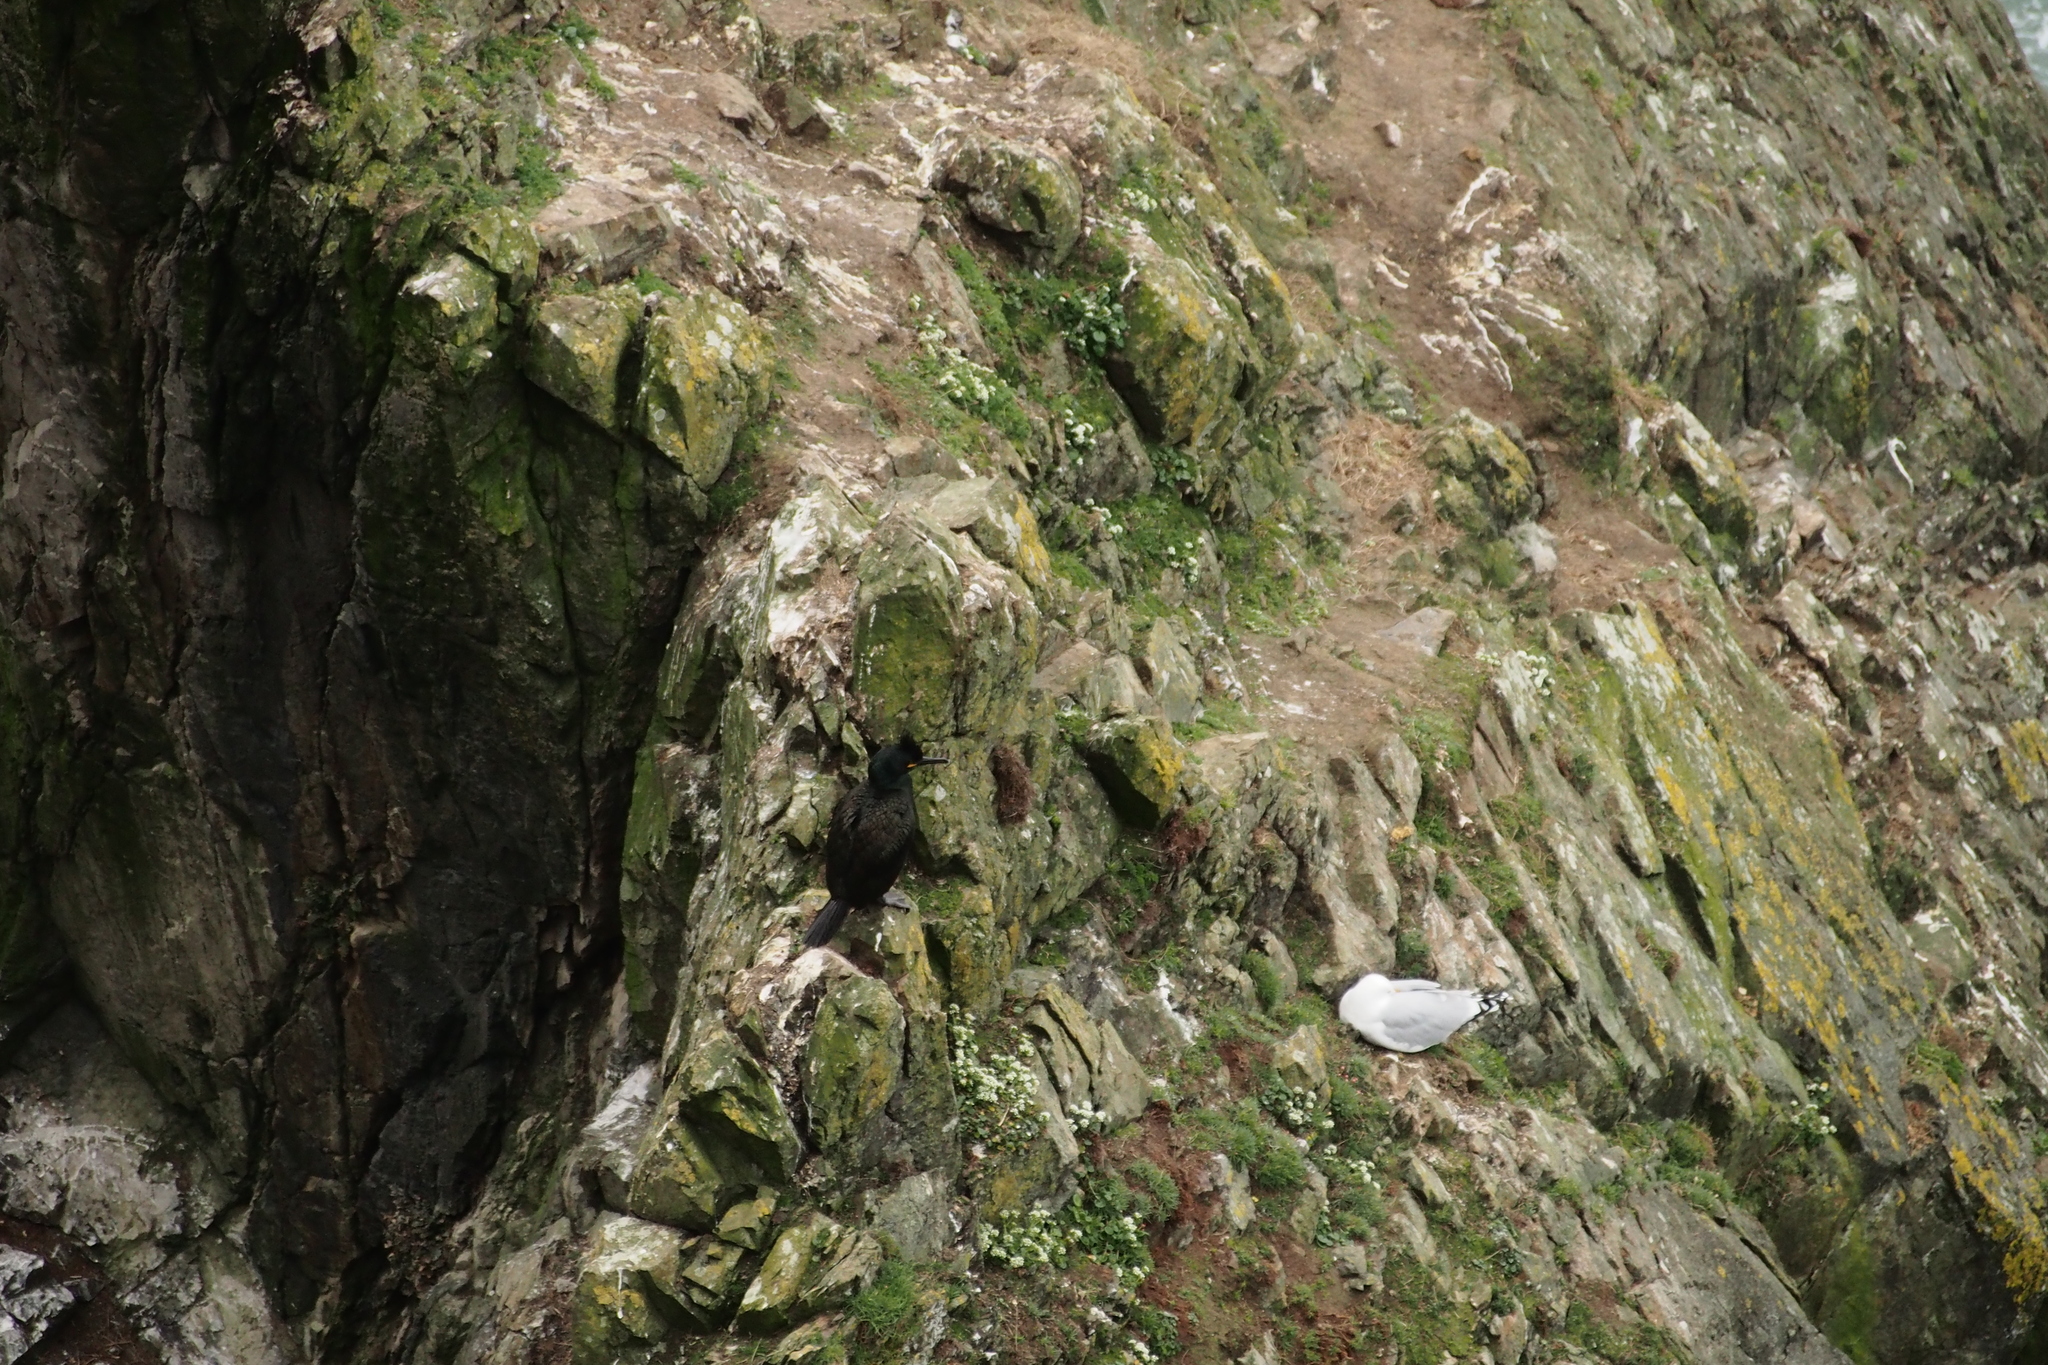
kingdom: Animalia
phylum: Chordata
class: Aves
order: Suliformes
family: Phalacrocoracidae
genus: Phalacrocorax
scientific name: Phalacrocorax aristotelis
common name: European shag
